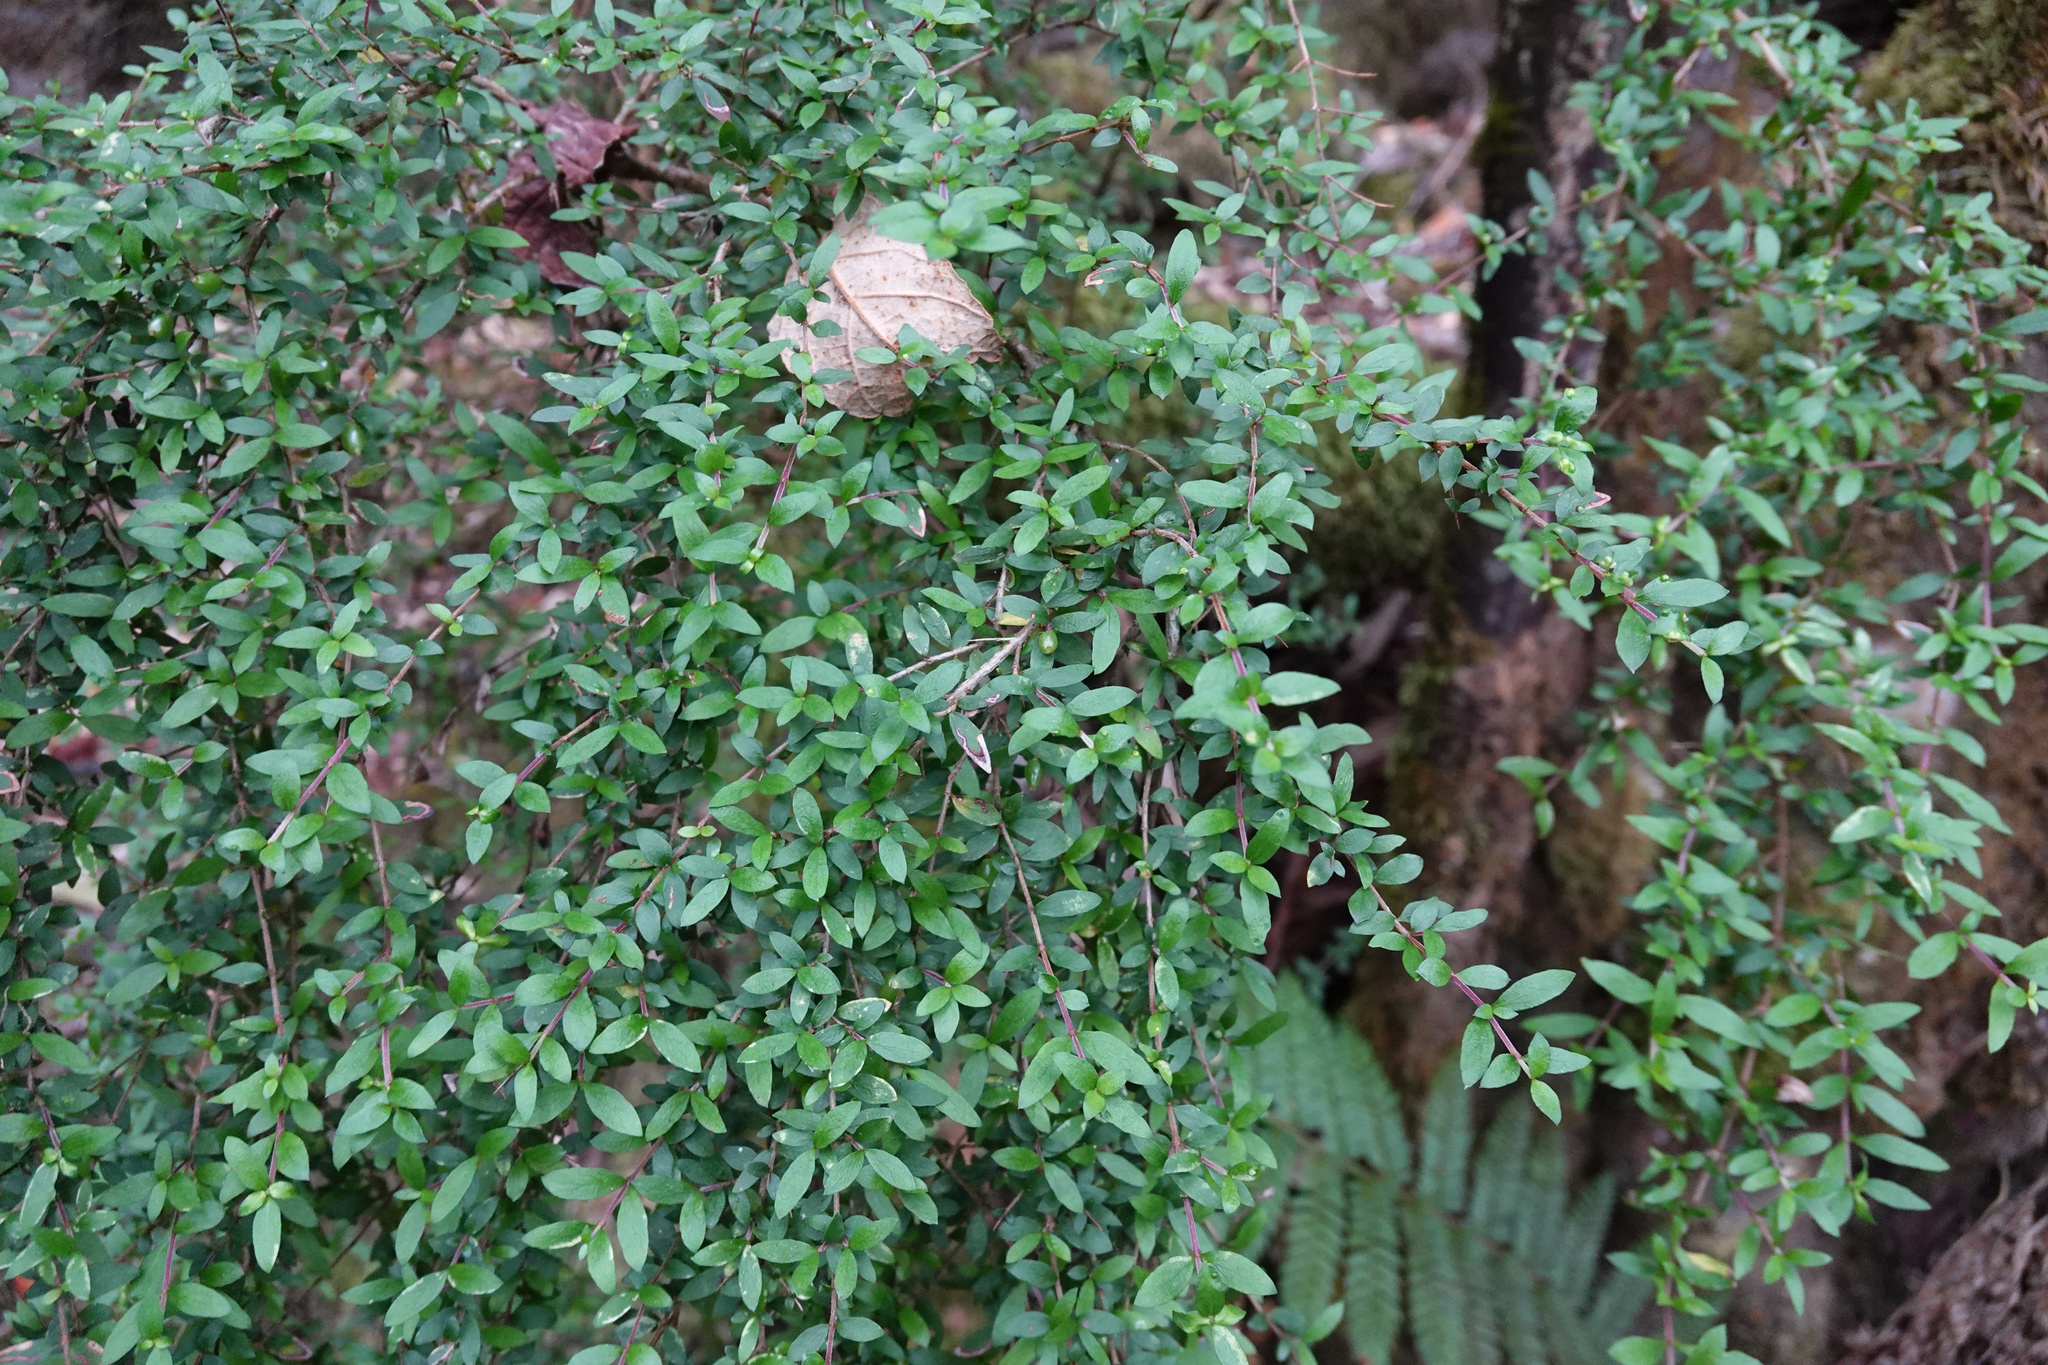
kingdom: Plantae
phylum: Tracheophyta
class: Magnoliopsida
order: Gentianales
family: Rubiaceae
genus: Coprosma
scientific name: Coprosma quadrifida
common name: Prickly currantbush
